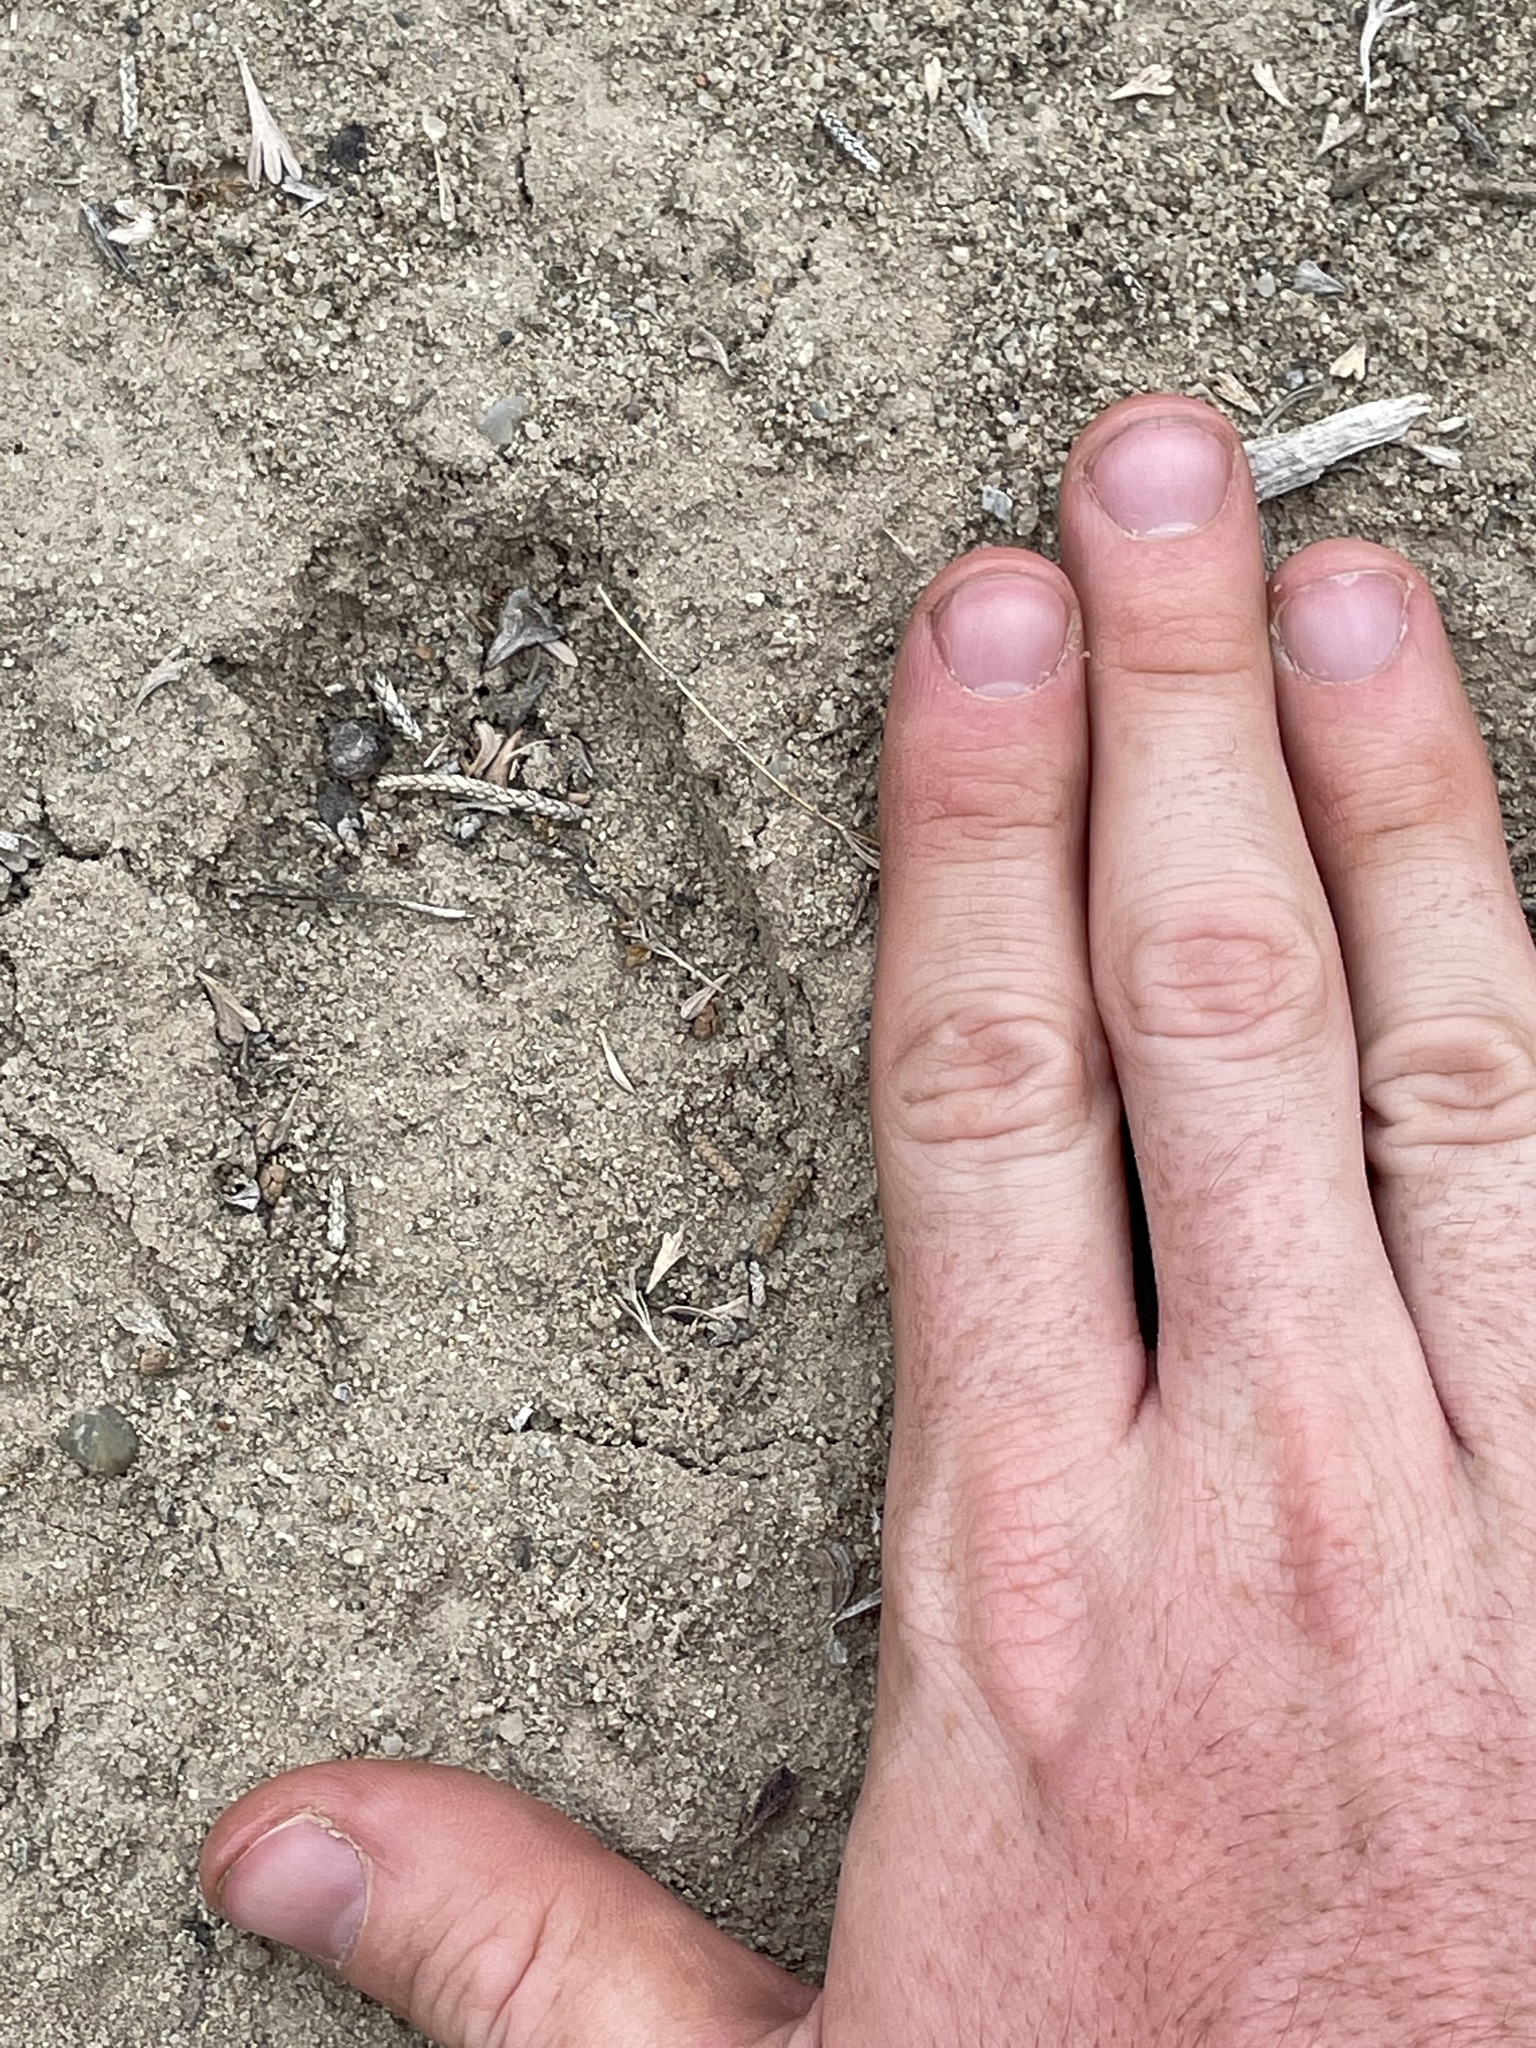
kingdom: Animalia
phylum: Chordata
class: Mammalia
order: Artiodactyla
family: Cervidae
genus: Odocoileus
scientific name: Odocoileus hemionus
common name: Mule deer
